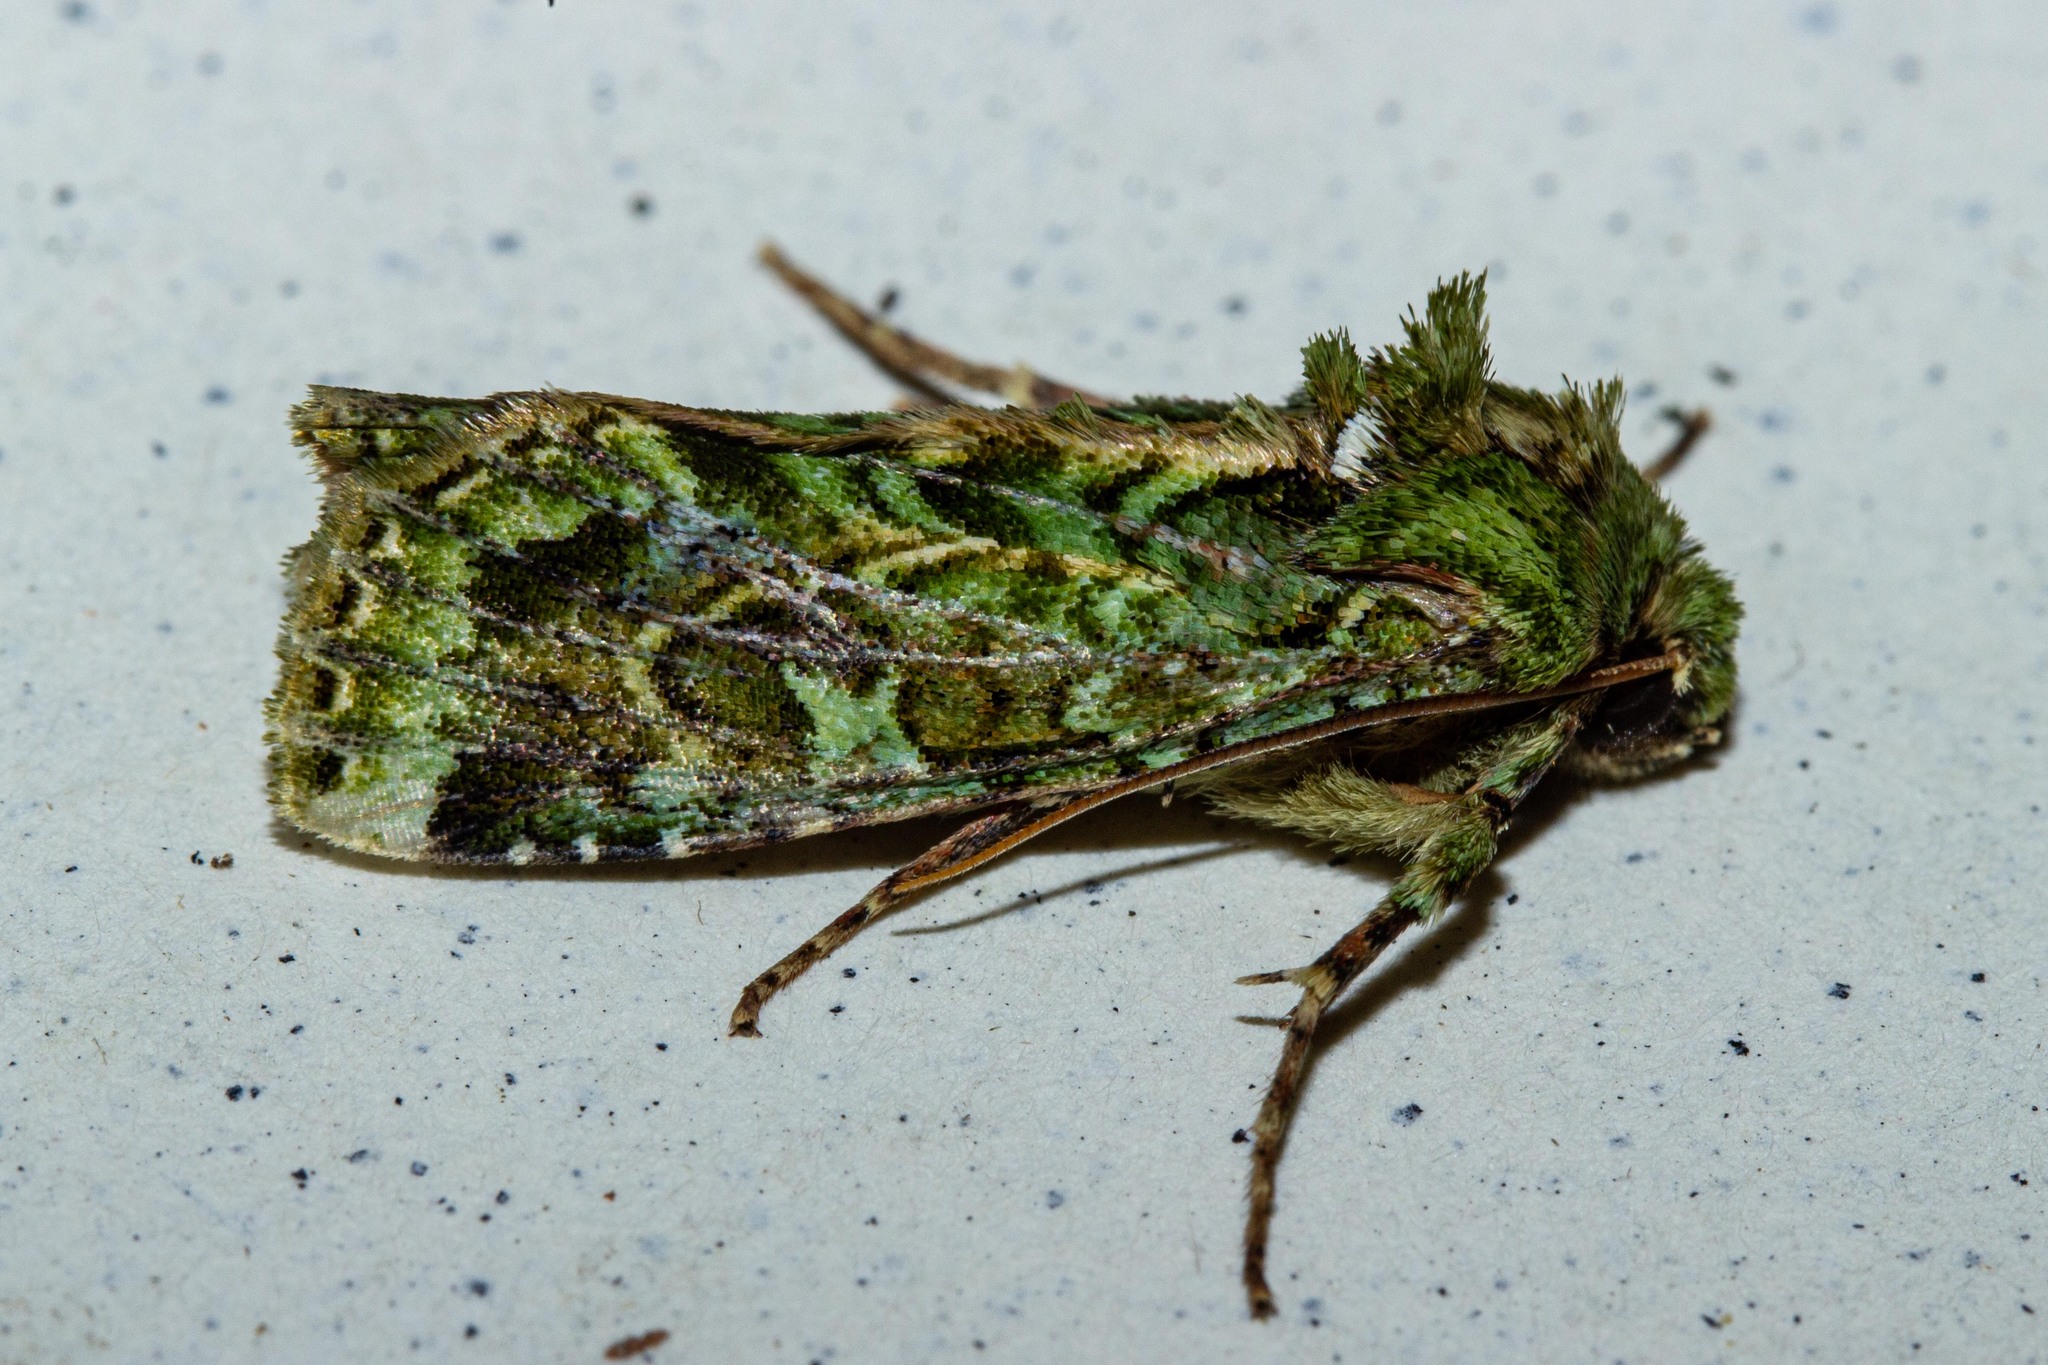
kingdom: Animalia
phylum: Arthropoda
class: Insecta
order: Lepidoptera
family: Noctuidae
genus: Feredayia
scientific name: Feredayia grammosa
